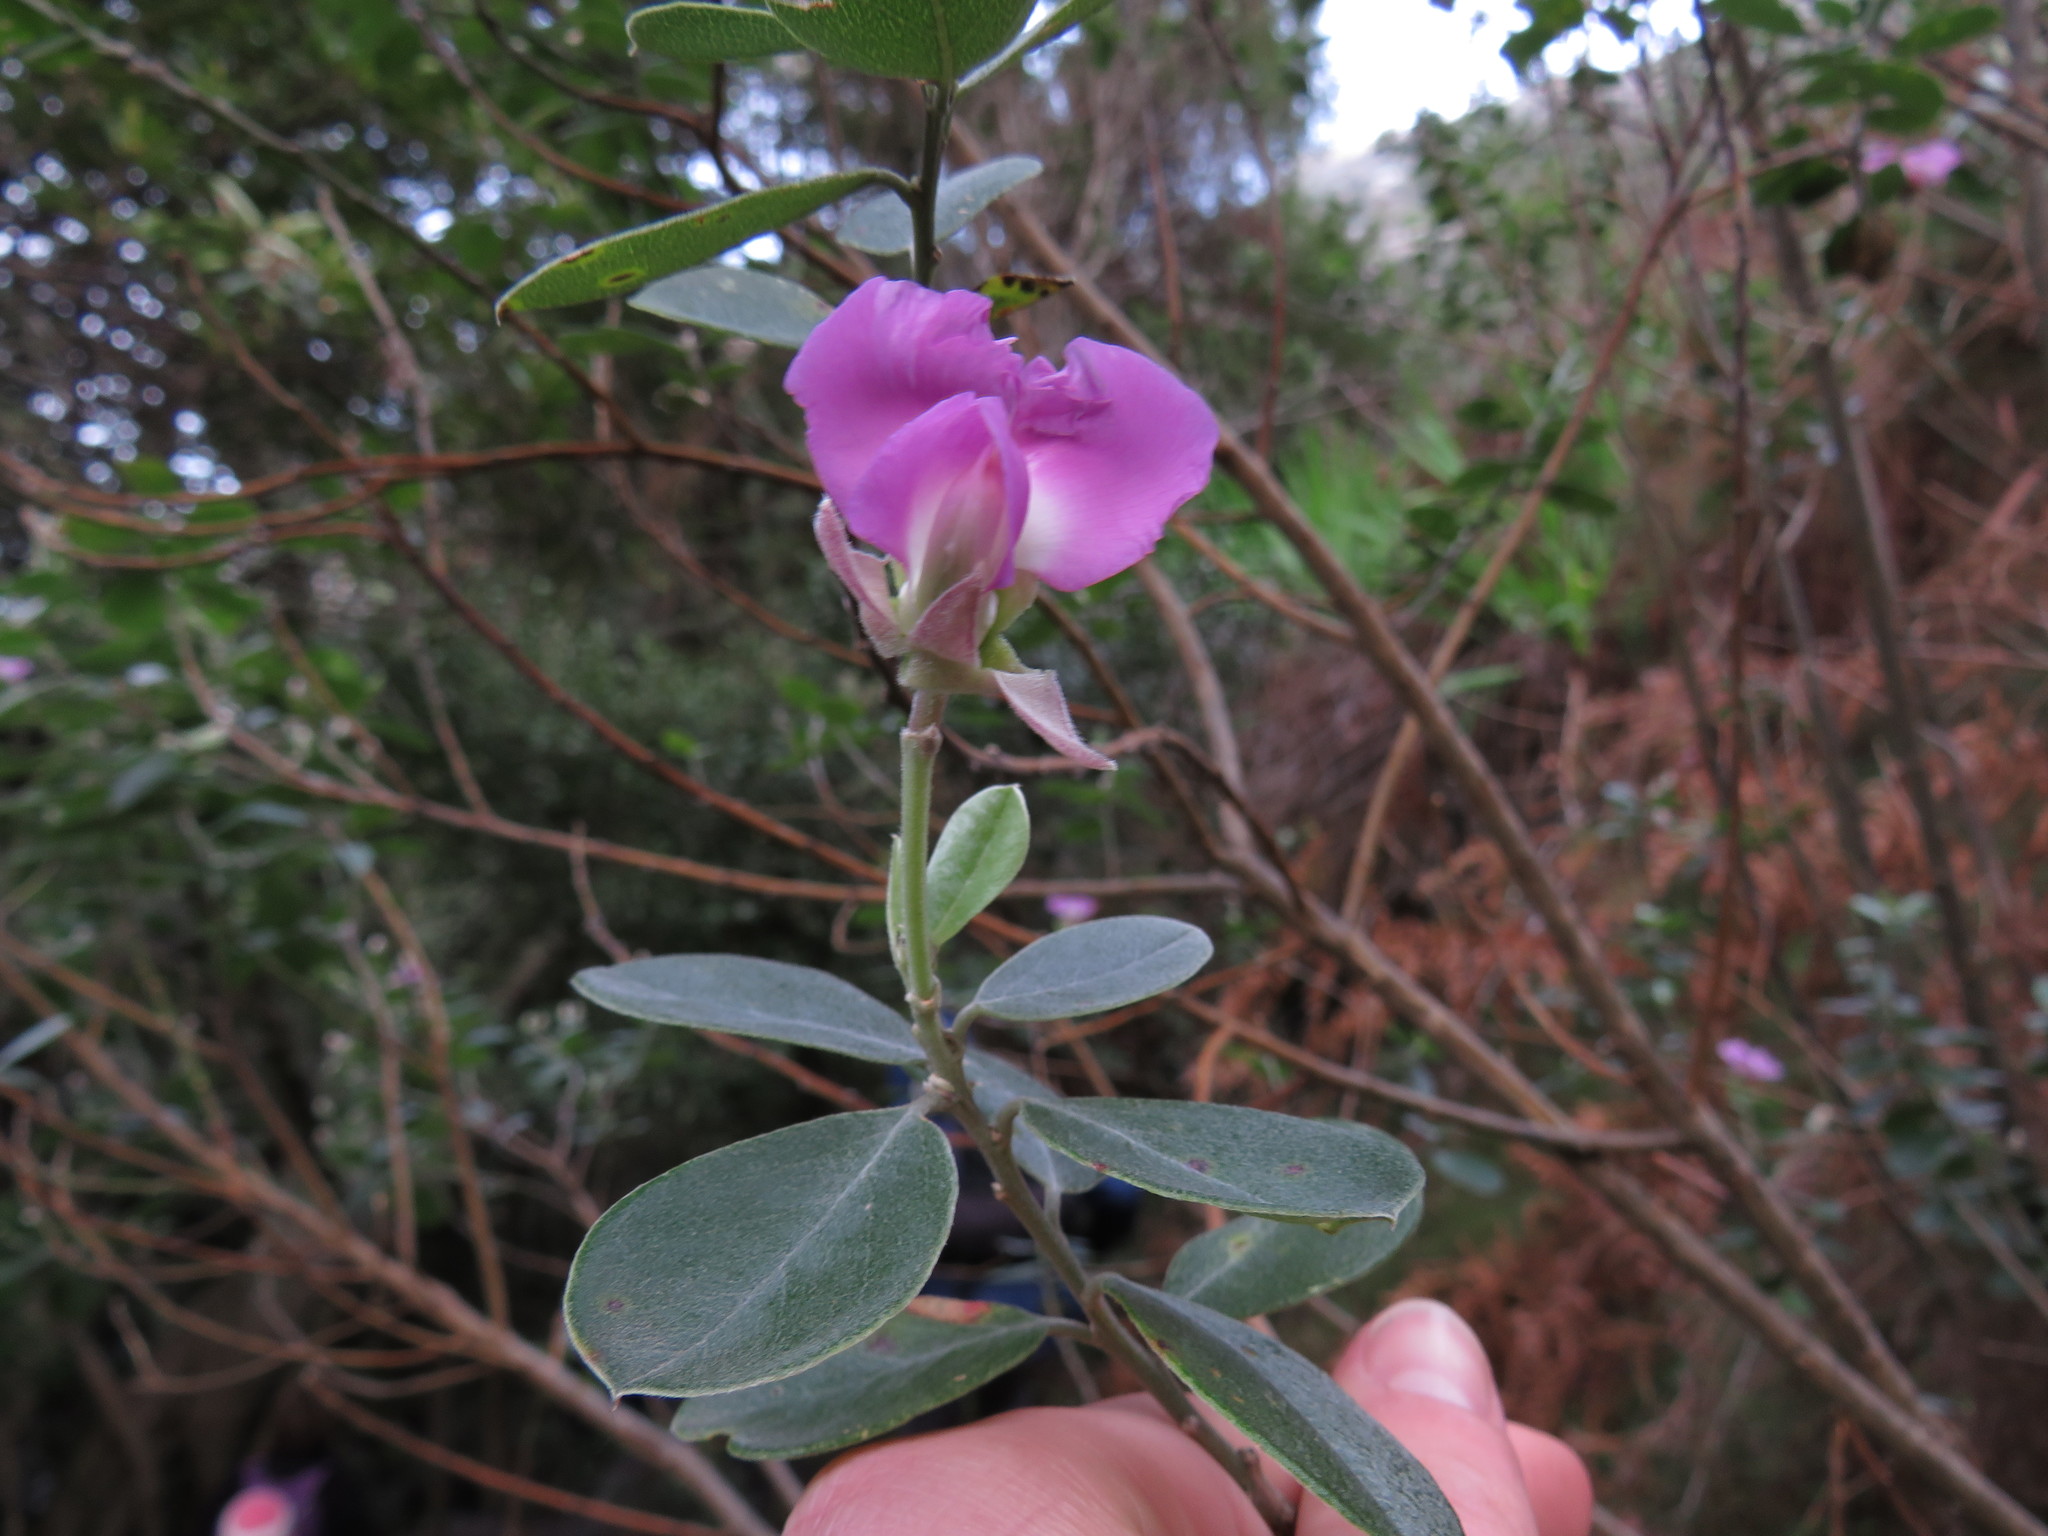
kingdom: Plantae
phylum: Tracheophyta
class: Magnoliopsida
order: Fabales
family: Fabaceae
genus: Podalyria
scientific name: Podalyria calyptrata
